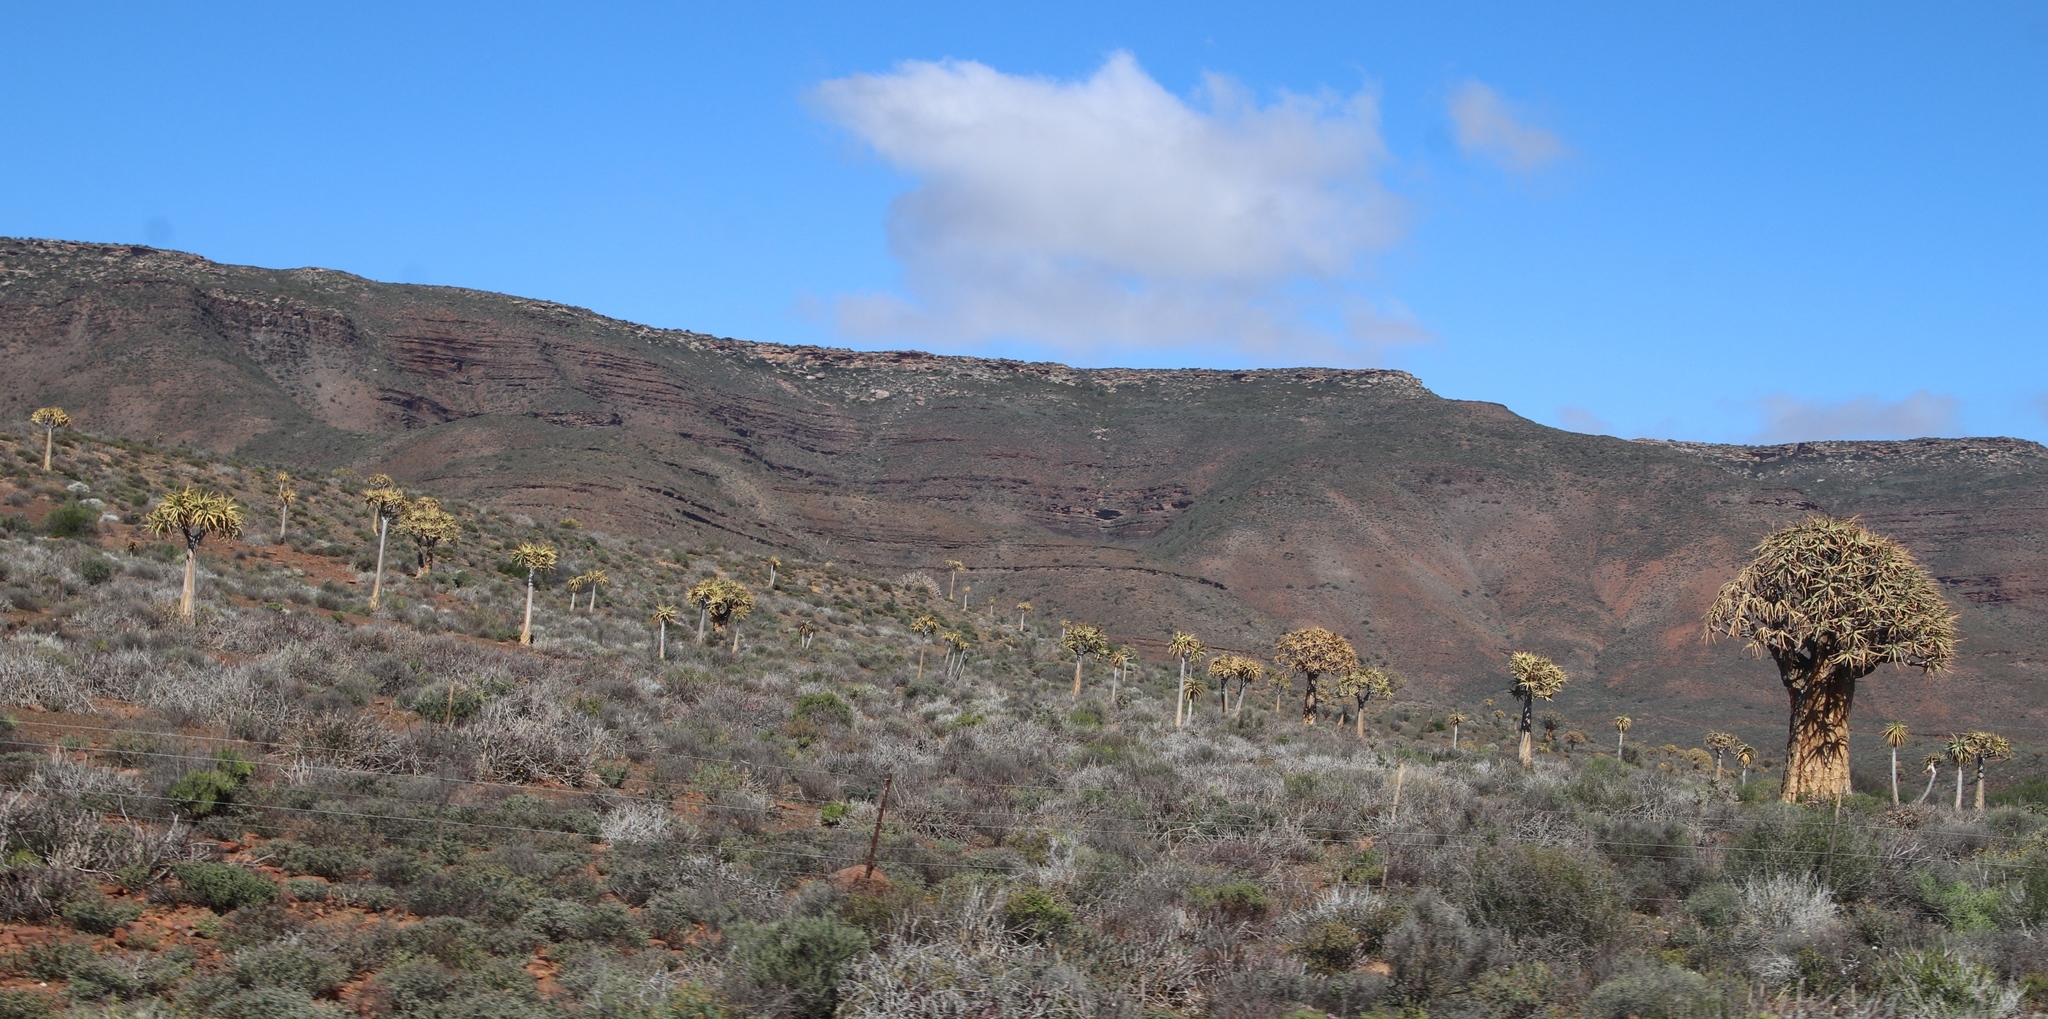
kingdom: Plantae
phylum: Tracheophyta
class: Liliopsida
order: Asparagales
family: Asphodelaceae
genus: Aloidendron
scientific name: Aloidendron dichotomum
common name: Quiver tree
